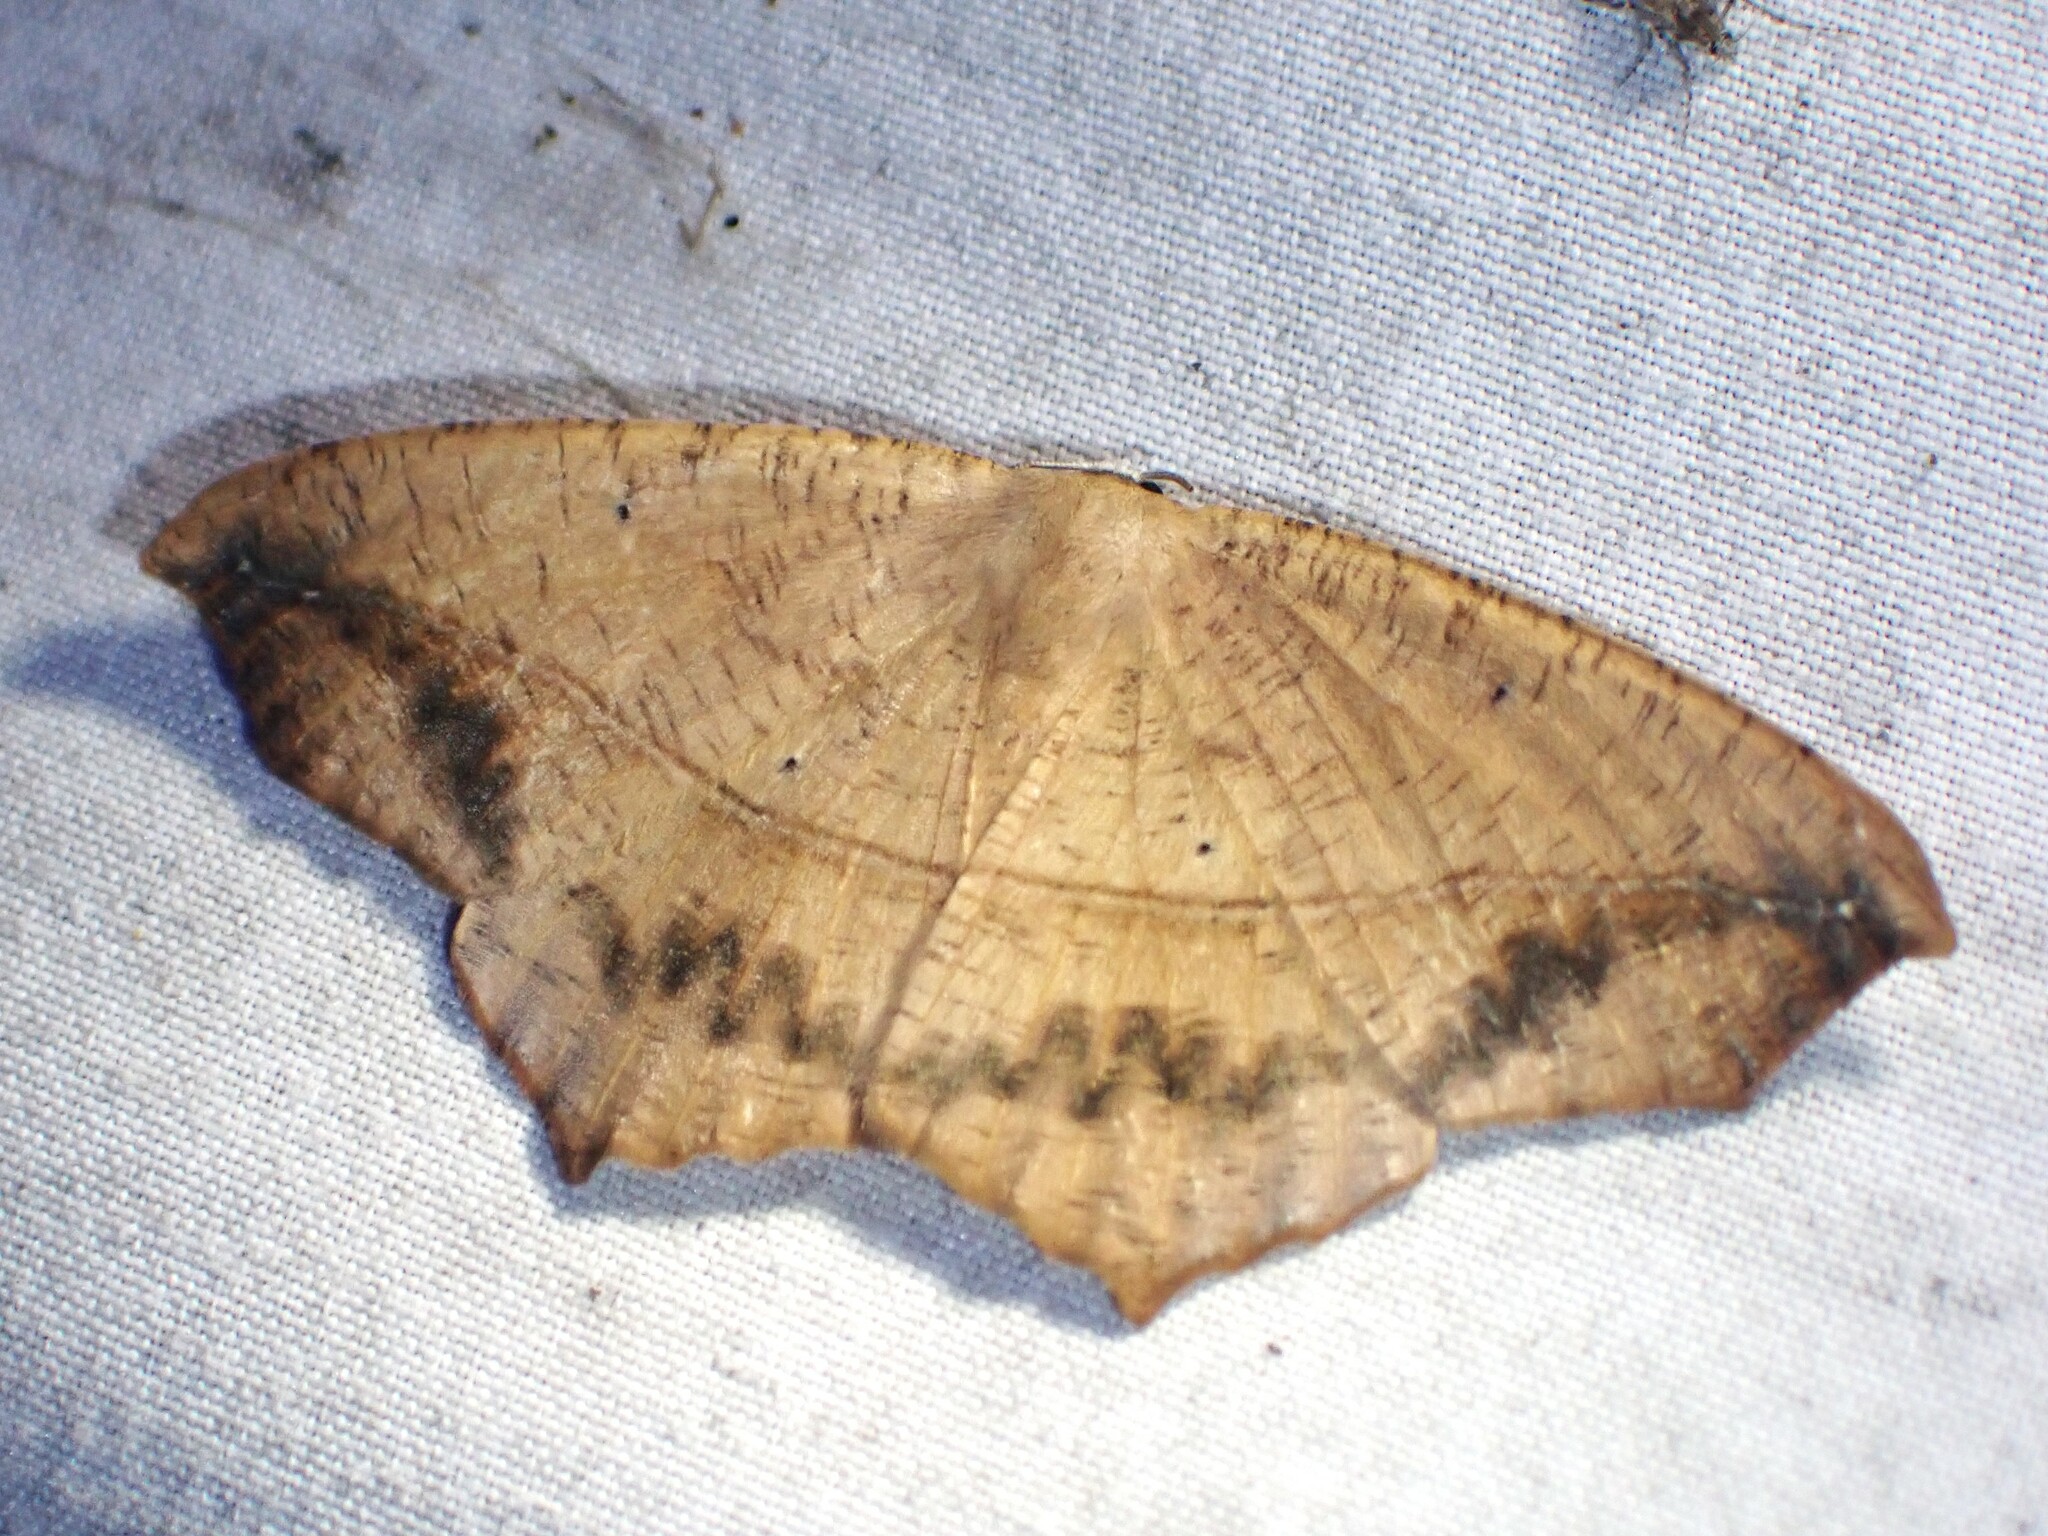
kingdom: Animalia
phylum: Arthropoda
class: Insecta
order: Lepidoptera
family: Geometridae
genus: Prochoerodes
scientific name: Prochoerodes lineola
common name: Large maple spanworm
